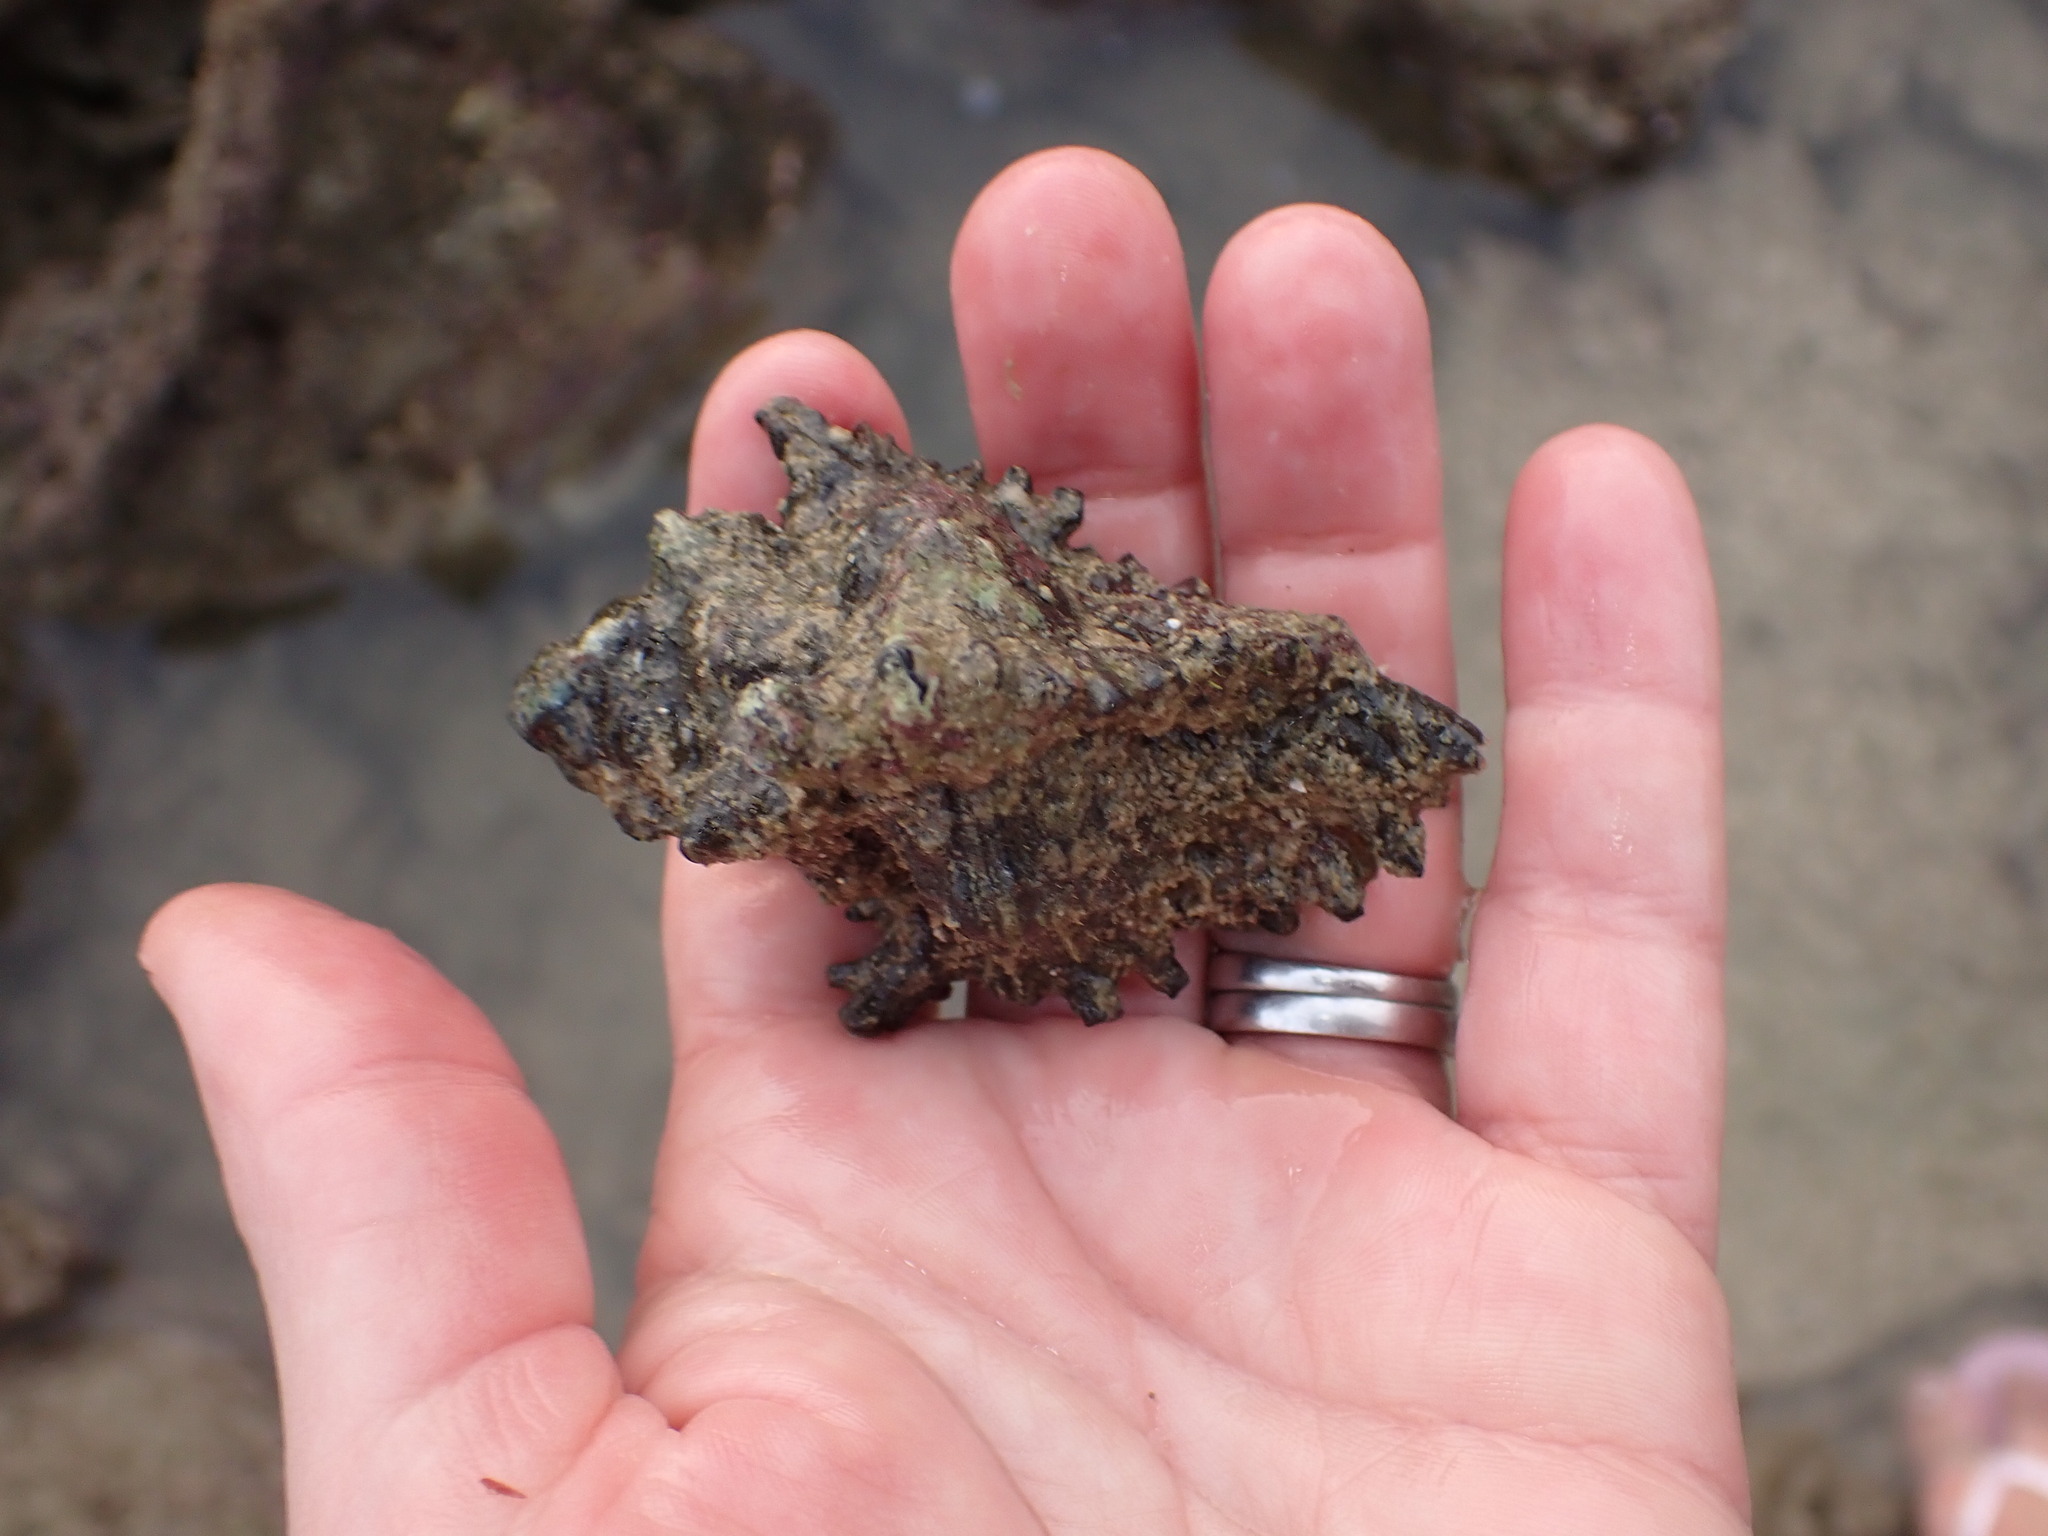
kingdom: Animalia
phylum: Mollusca
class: Gastropoda
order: Neogastropoda
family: Muricidae
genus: Chicoreus
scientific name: Chicoreus brunneus
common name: Adusta murex
